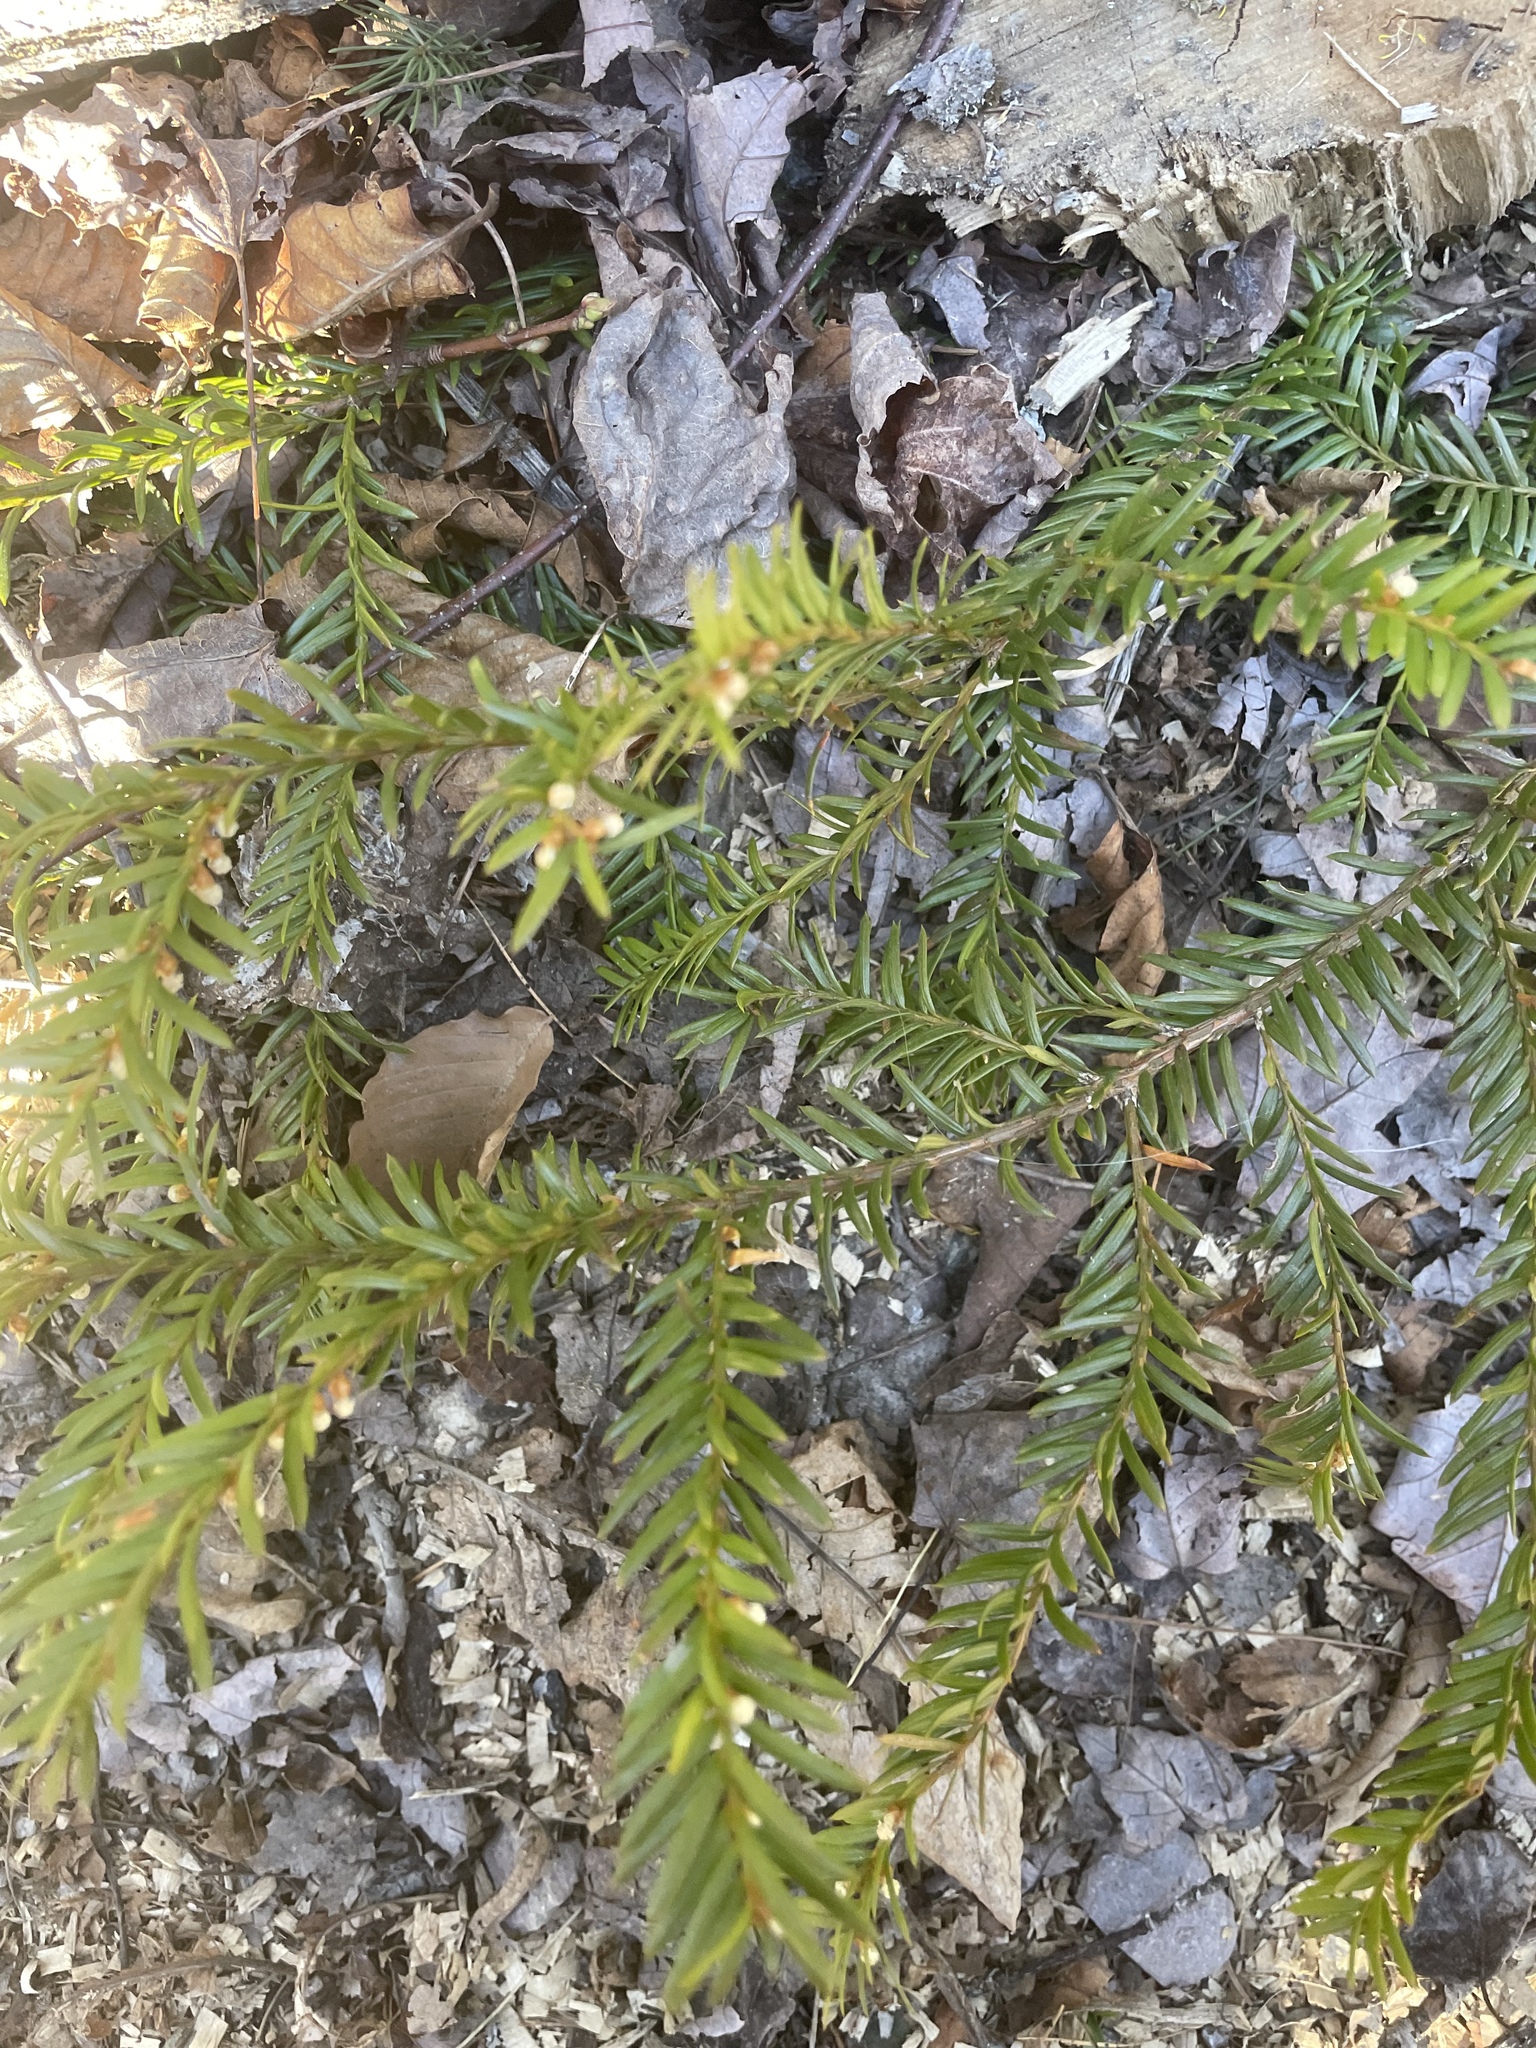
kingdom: Plantae
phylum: Tracheophyta
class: Pinopsida
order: Pinales
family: Taxaceae
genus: Taxus
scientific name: Taxus canadensis
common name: American yew
